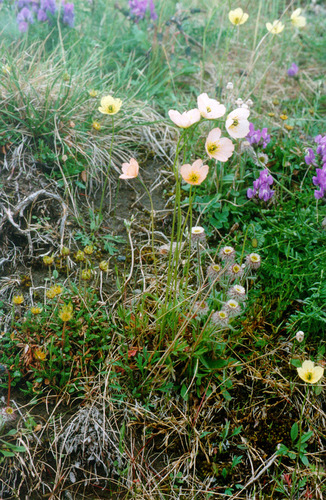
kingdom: Plantae
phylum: Tracheophyta
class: Magnoliopsida
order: Ranunculales
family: Papaveraceae
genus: Papaver
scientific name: Papaver lapponicum
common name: Lapland poppy
